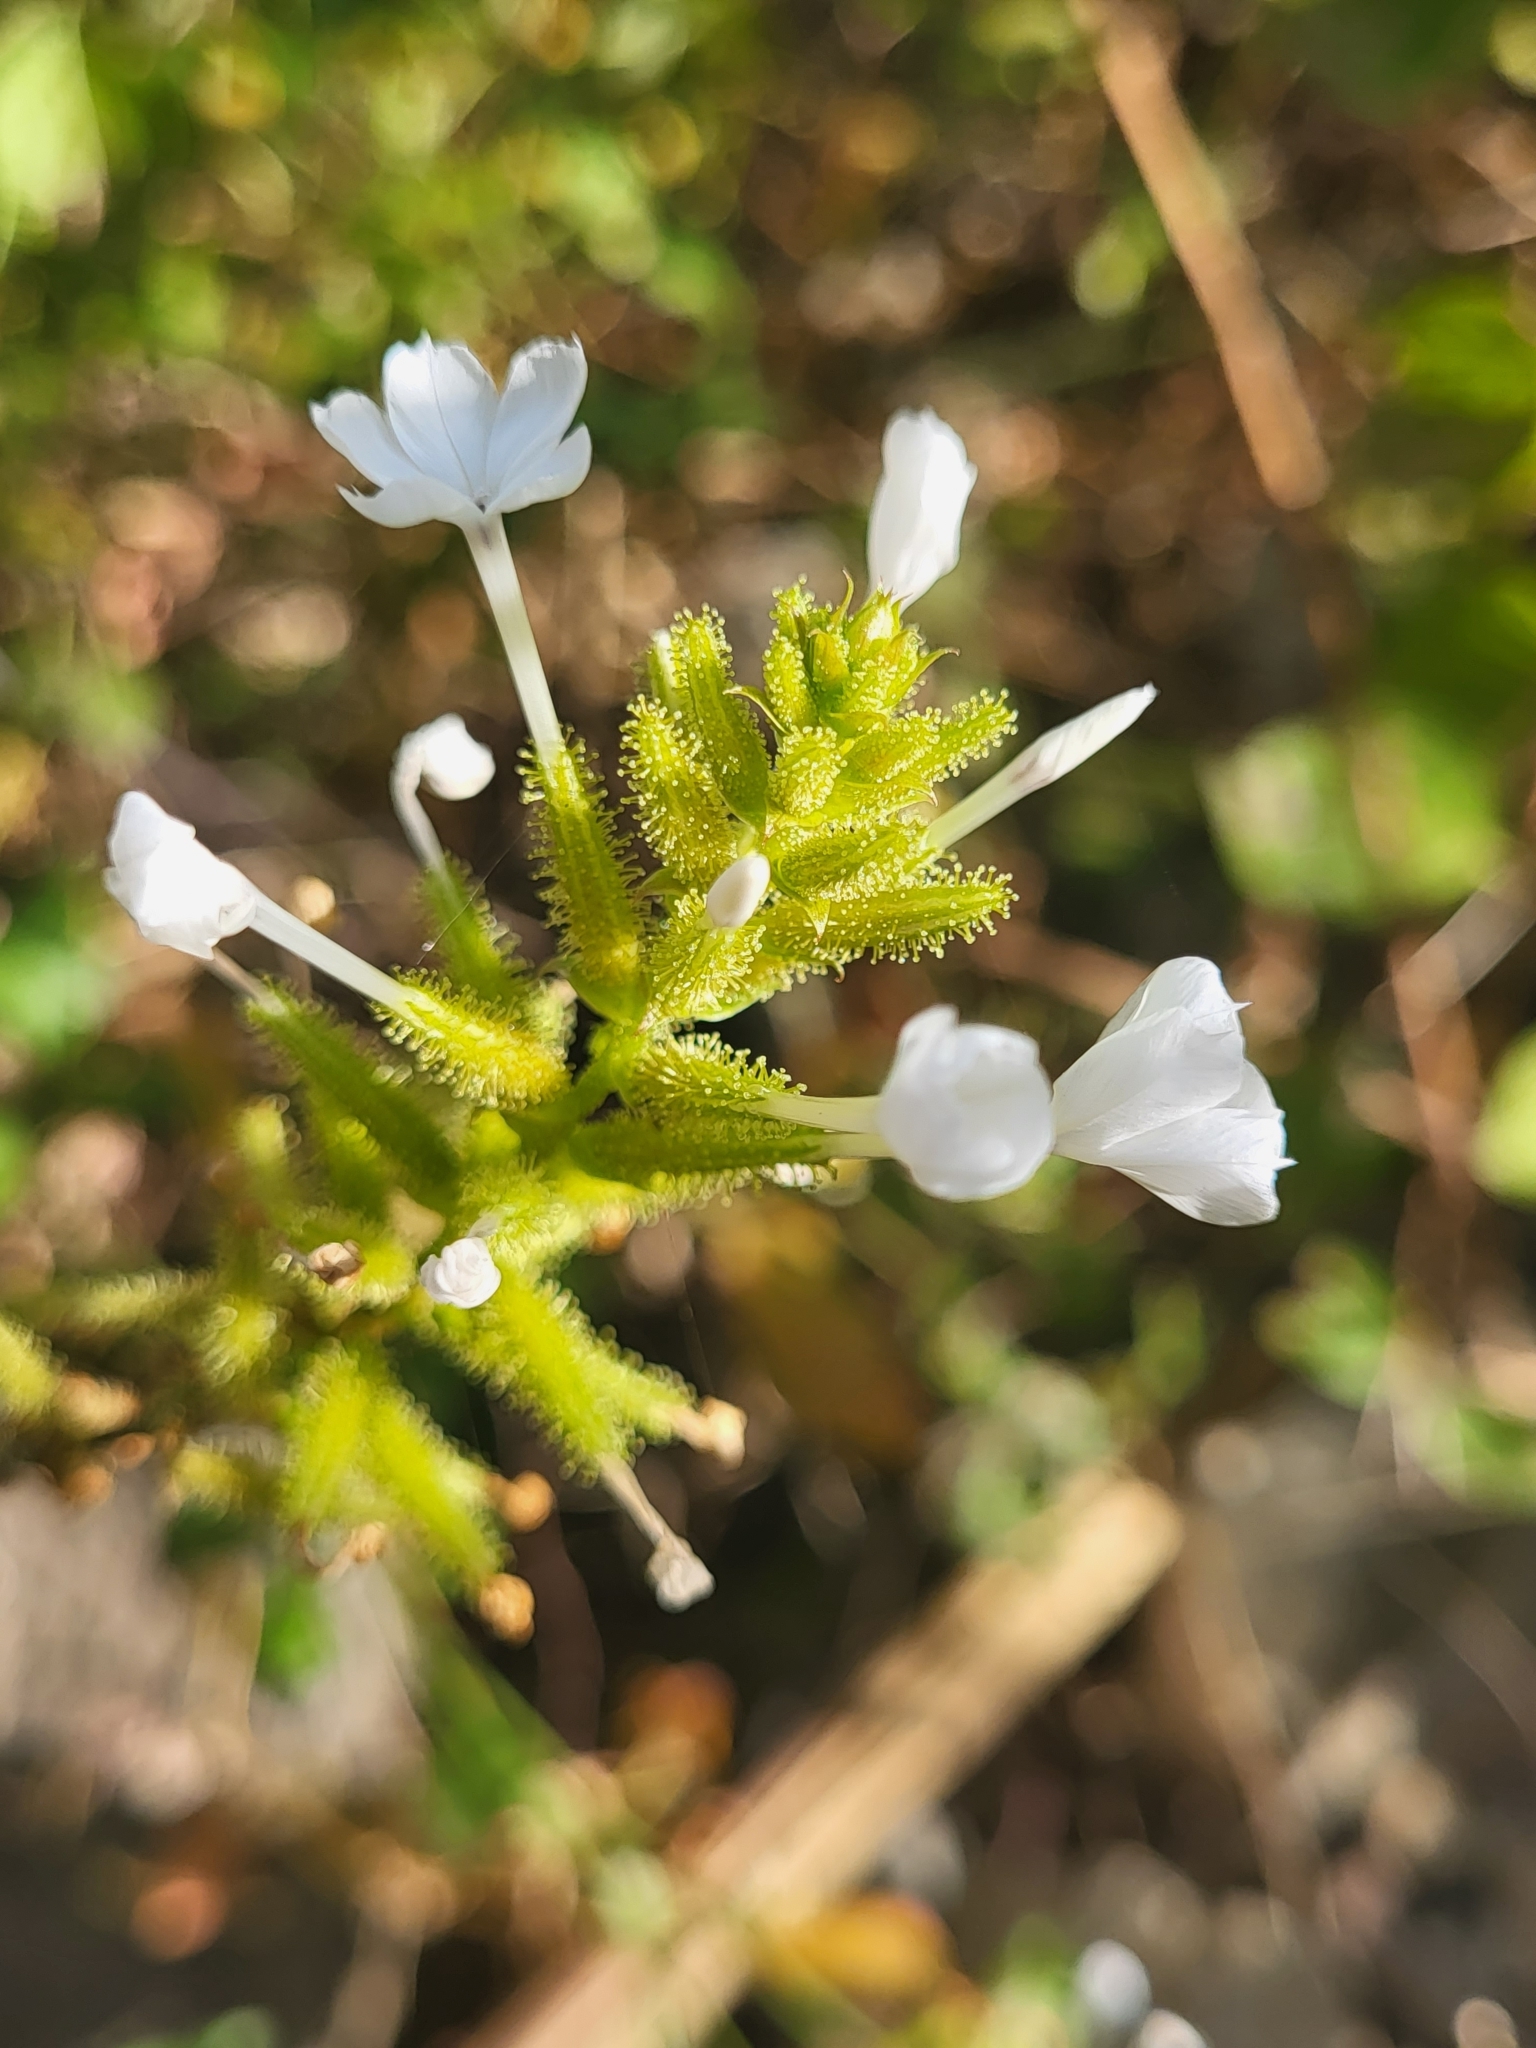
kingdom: Plantae
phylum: Tracheophyta
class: Magnoliopsida
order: Caryophyllales
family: Plumbaginaceae
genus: Plumbago
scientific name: Plumbago zeylanica
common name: Doctorbush
